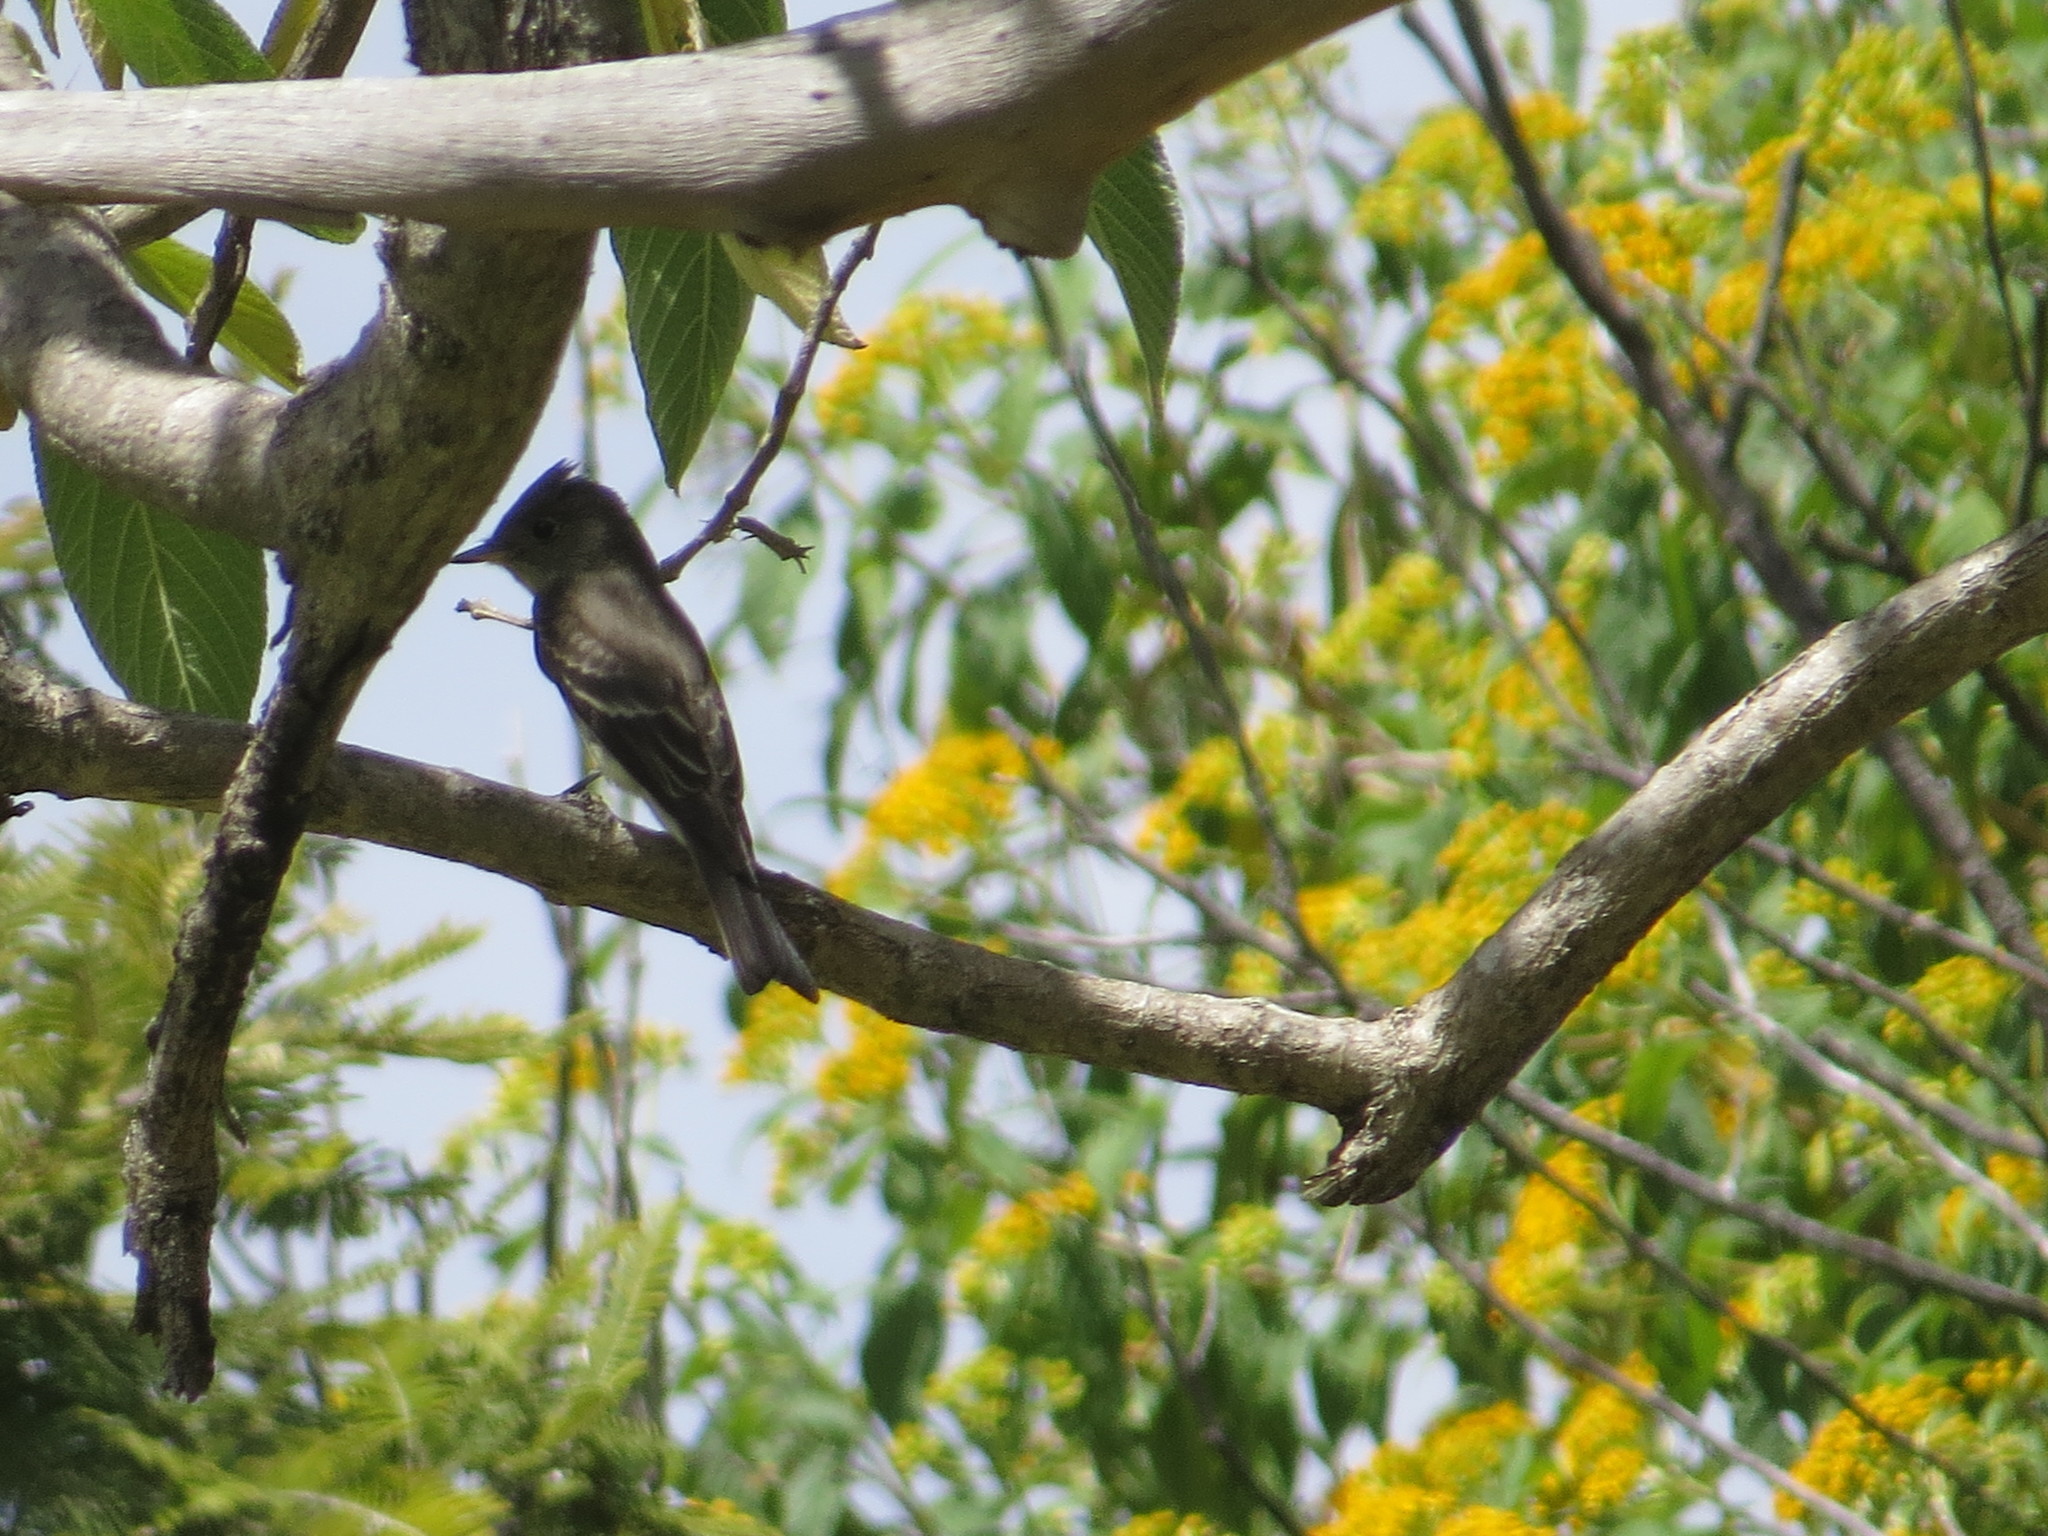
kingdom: Animalia
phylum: Chordata
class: Aves
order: Passeriformes
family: Tyrannidae
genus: Contopus
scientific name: Contopus sordidulus
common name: Western wood-pewee
